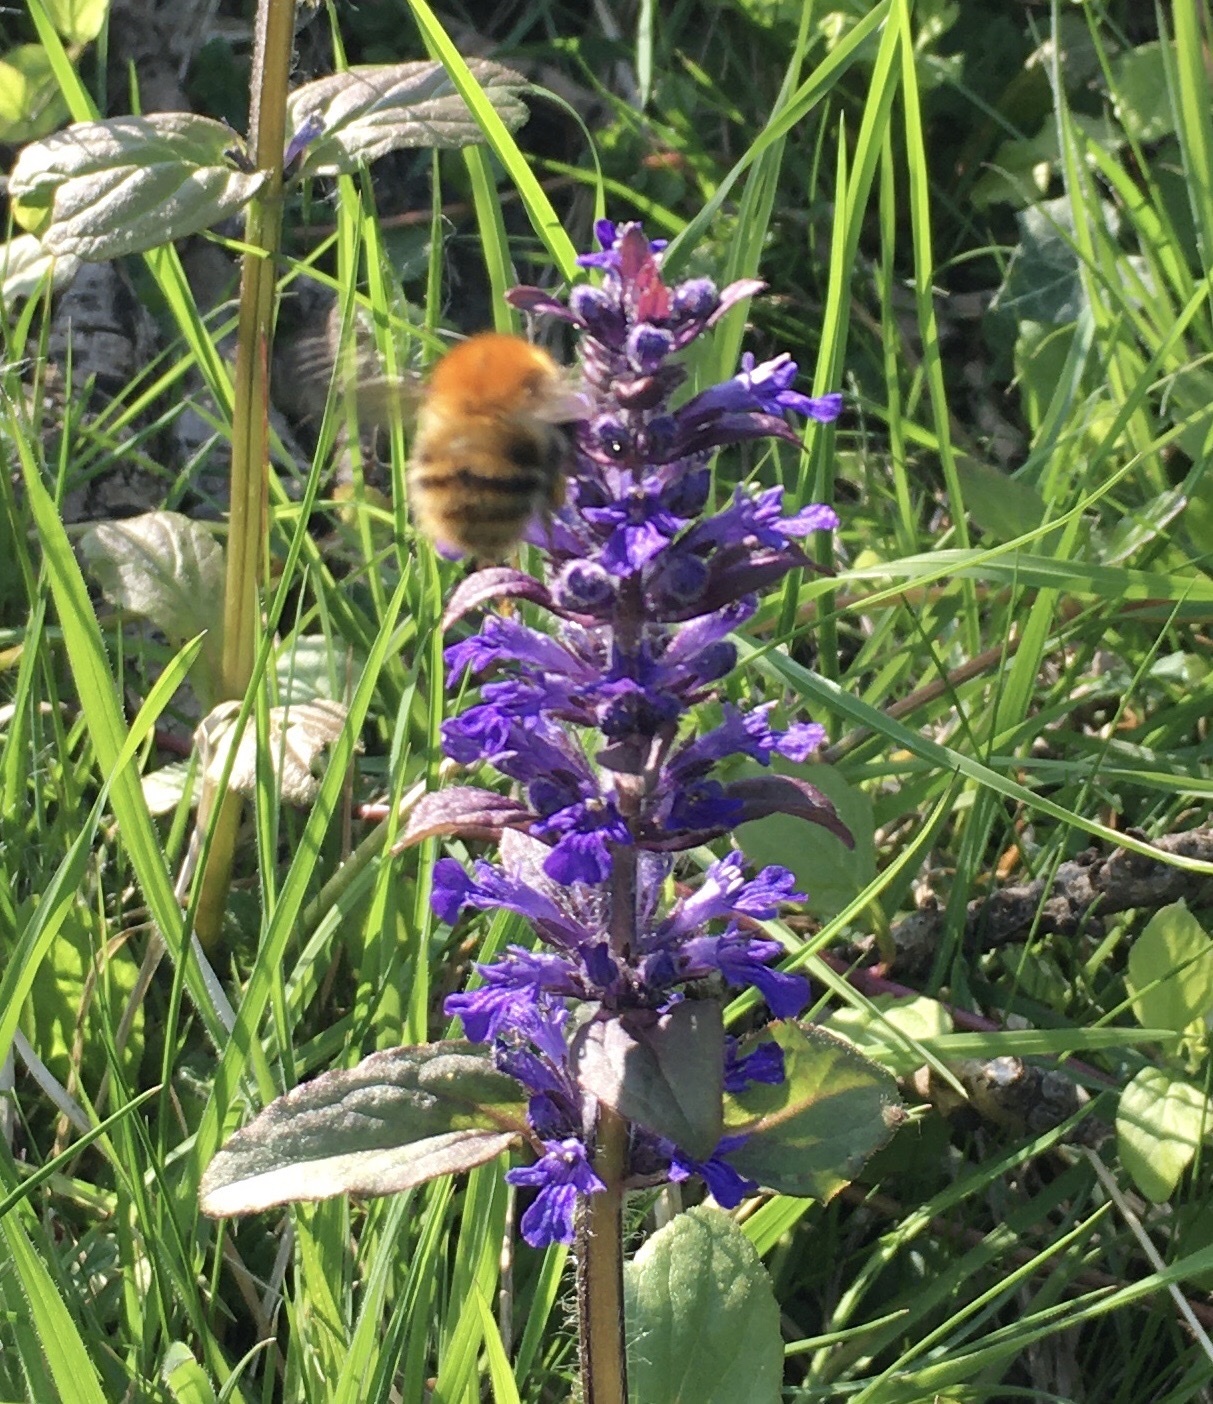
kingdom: Plantae
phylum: Tracheophyta
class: Magnoliopsida
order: Lamiales
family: Lamiaceae
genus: Ajuga
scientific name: Ajuga reptans
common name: Bugle
